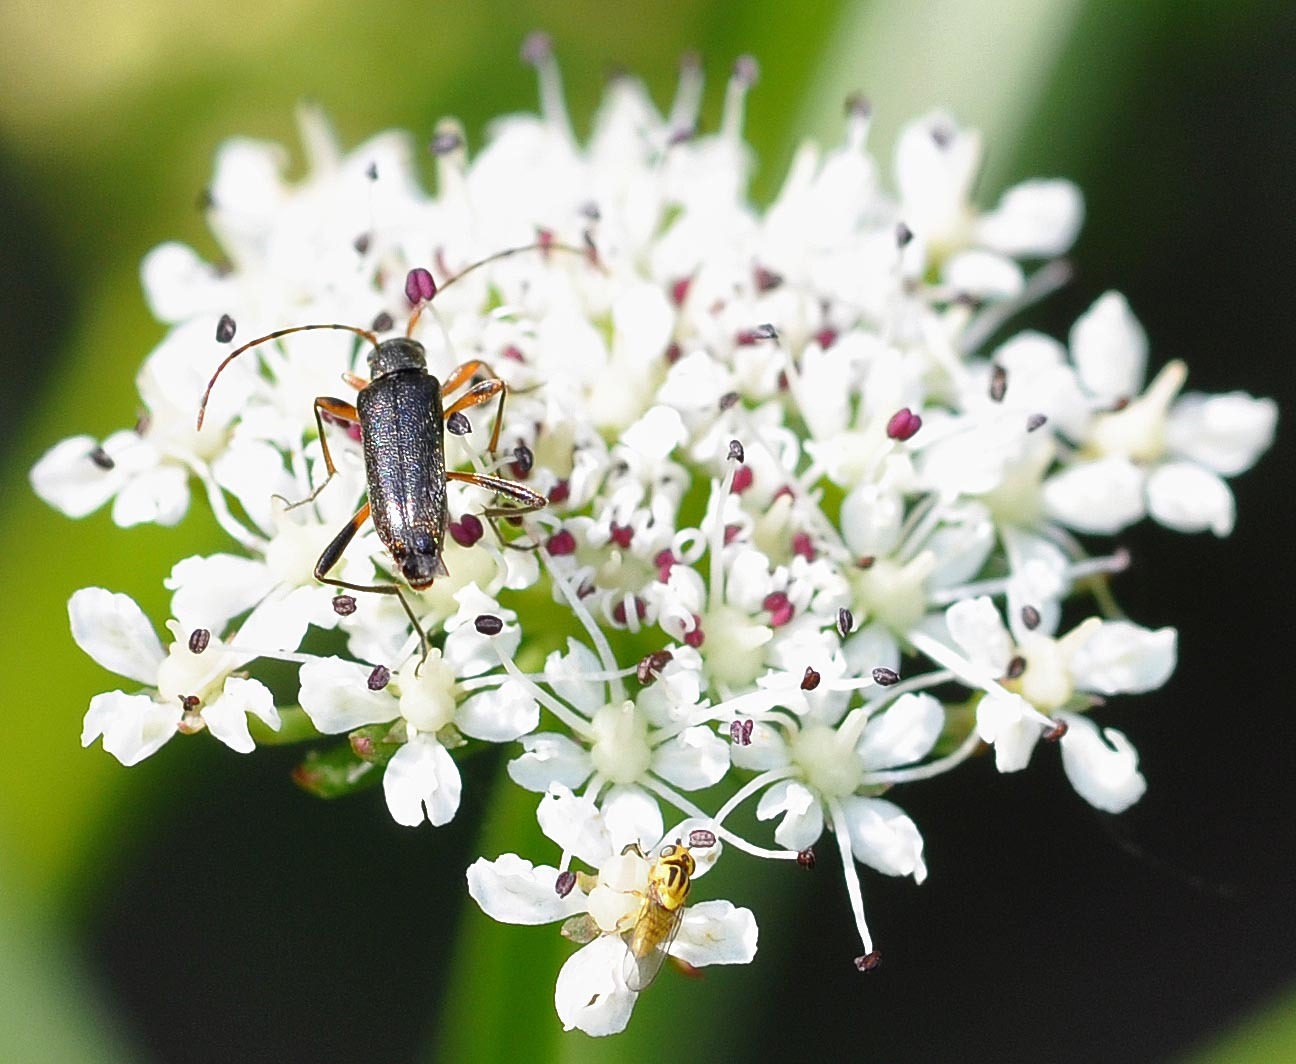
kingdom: Animalia
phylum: Arthropoda
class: Insecta
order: Coleoptera
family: Cerambycidae
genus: Grammoptera
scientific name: Grammoptera ruficornis
